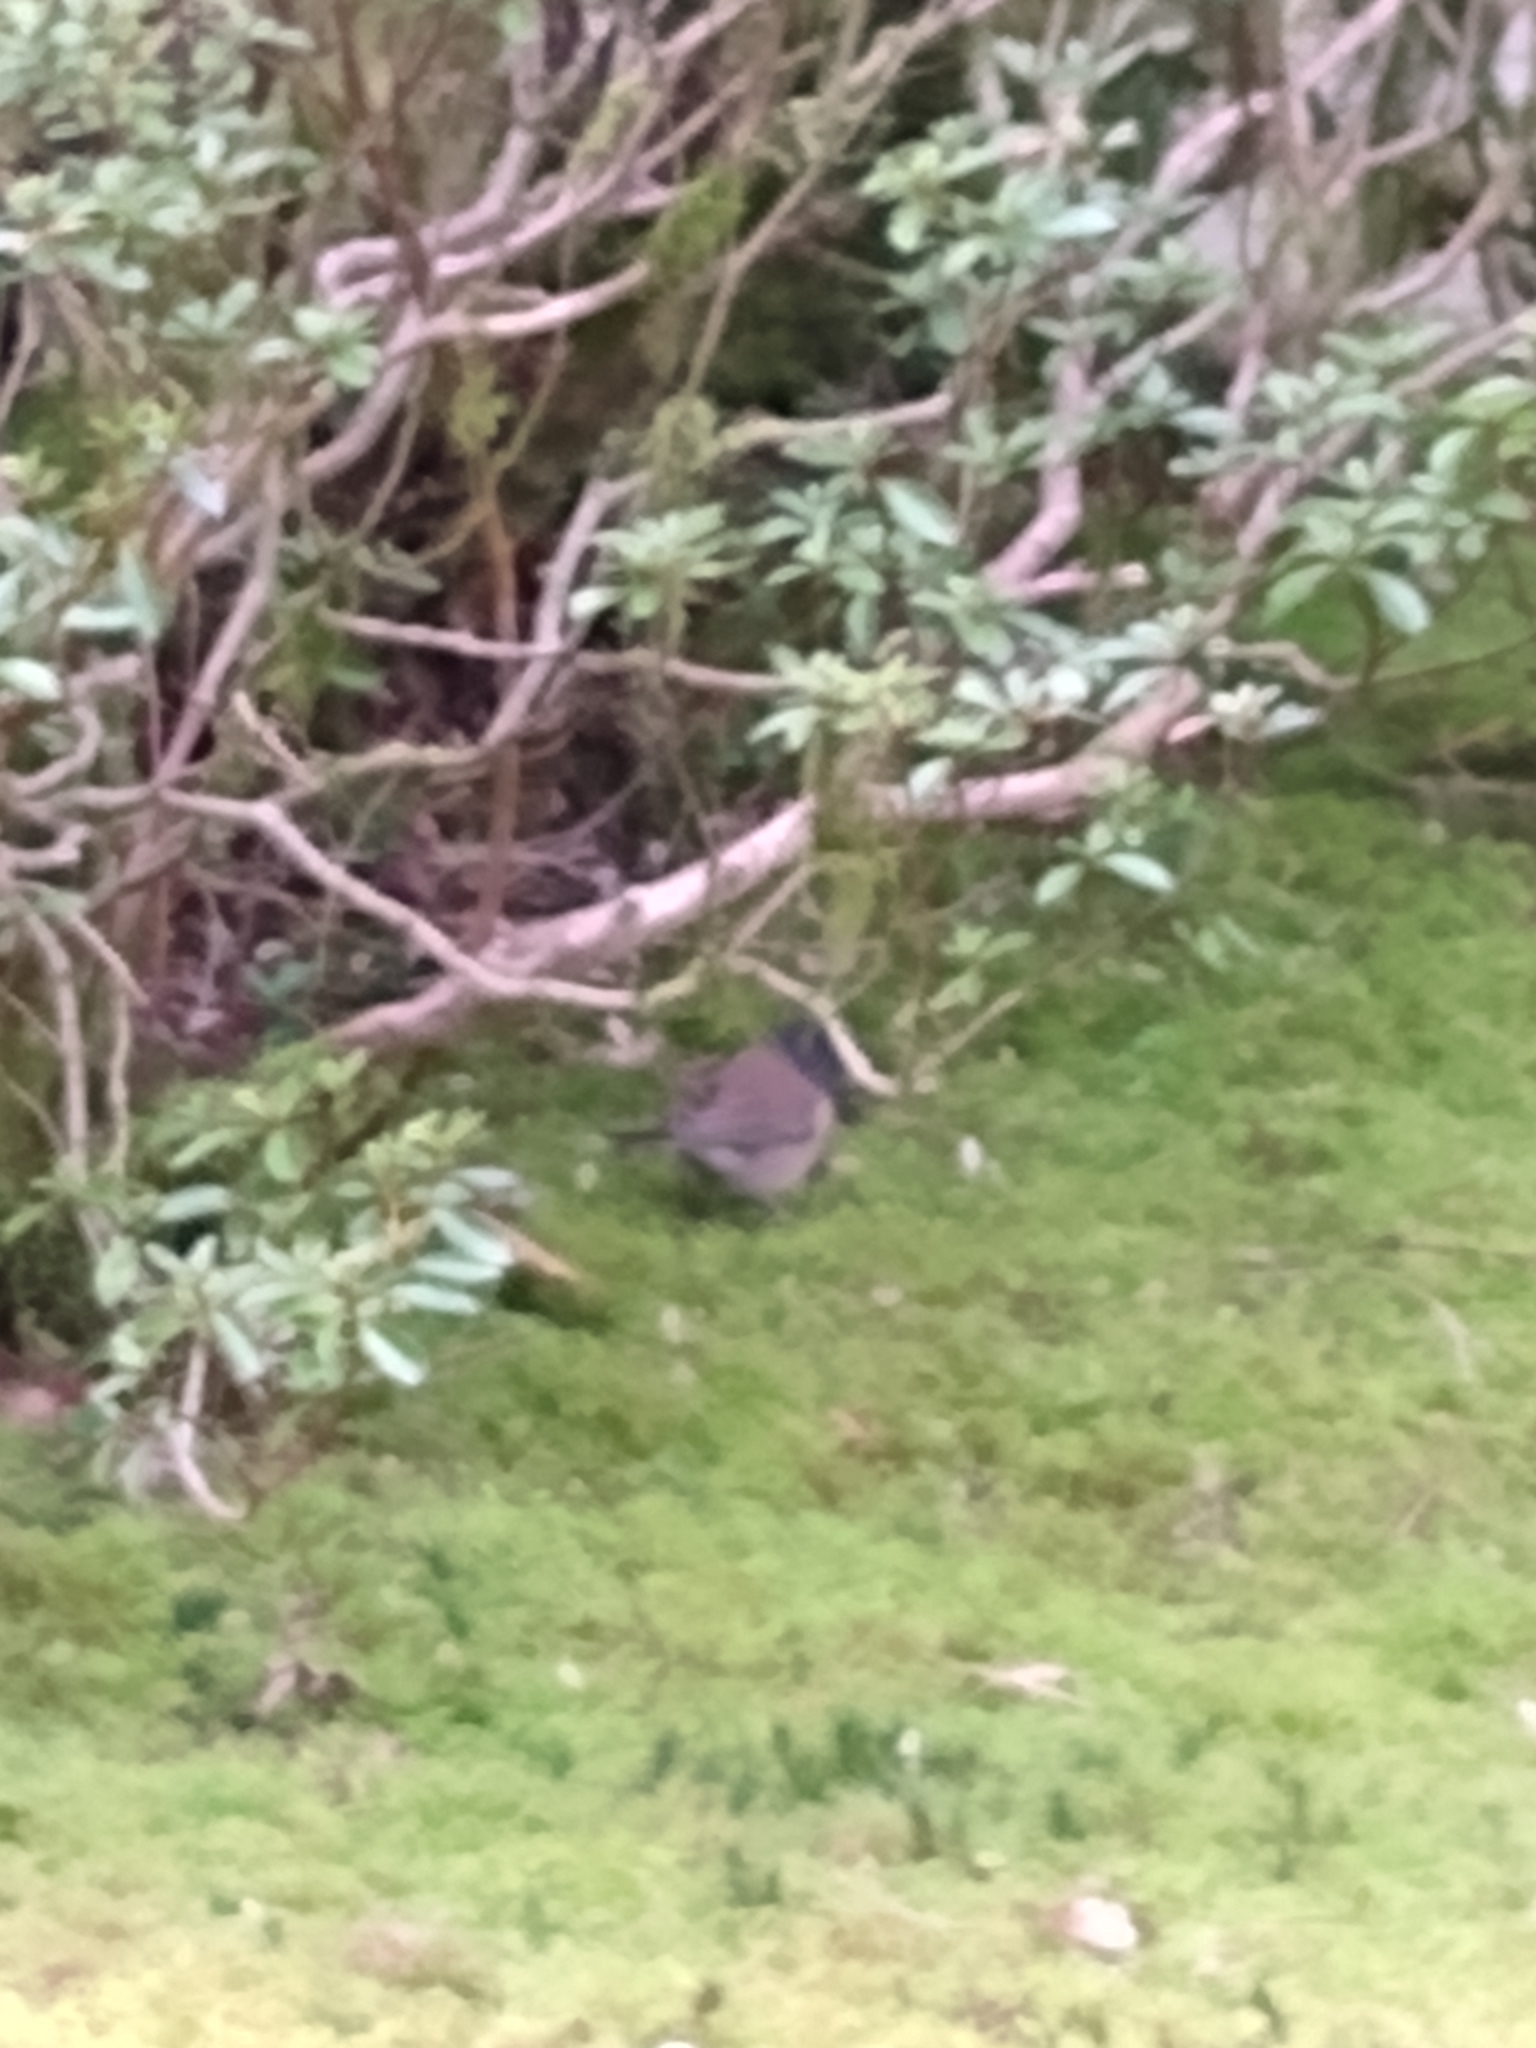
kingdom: Animalia
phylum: Chordata
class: Aves
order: Passeriformes
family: Passerellidae
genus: Junco
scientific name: Junco hyemalis
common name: Dark-eyed junco
